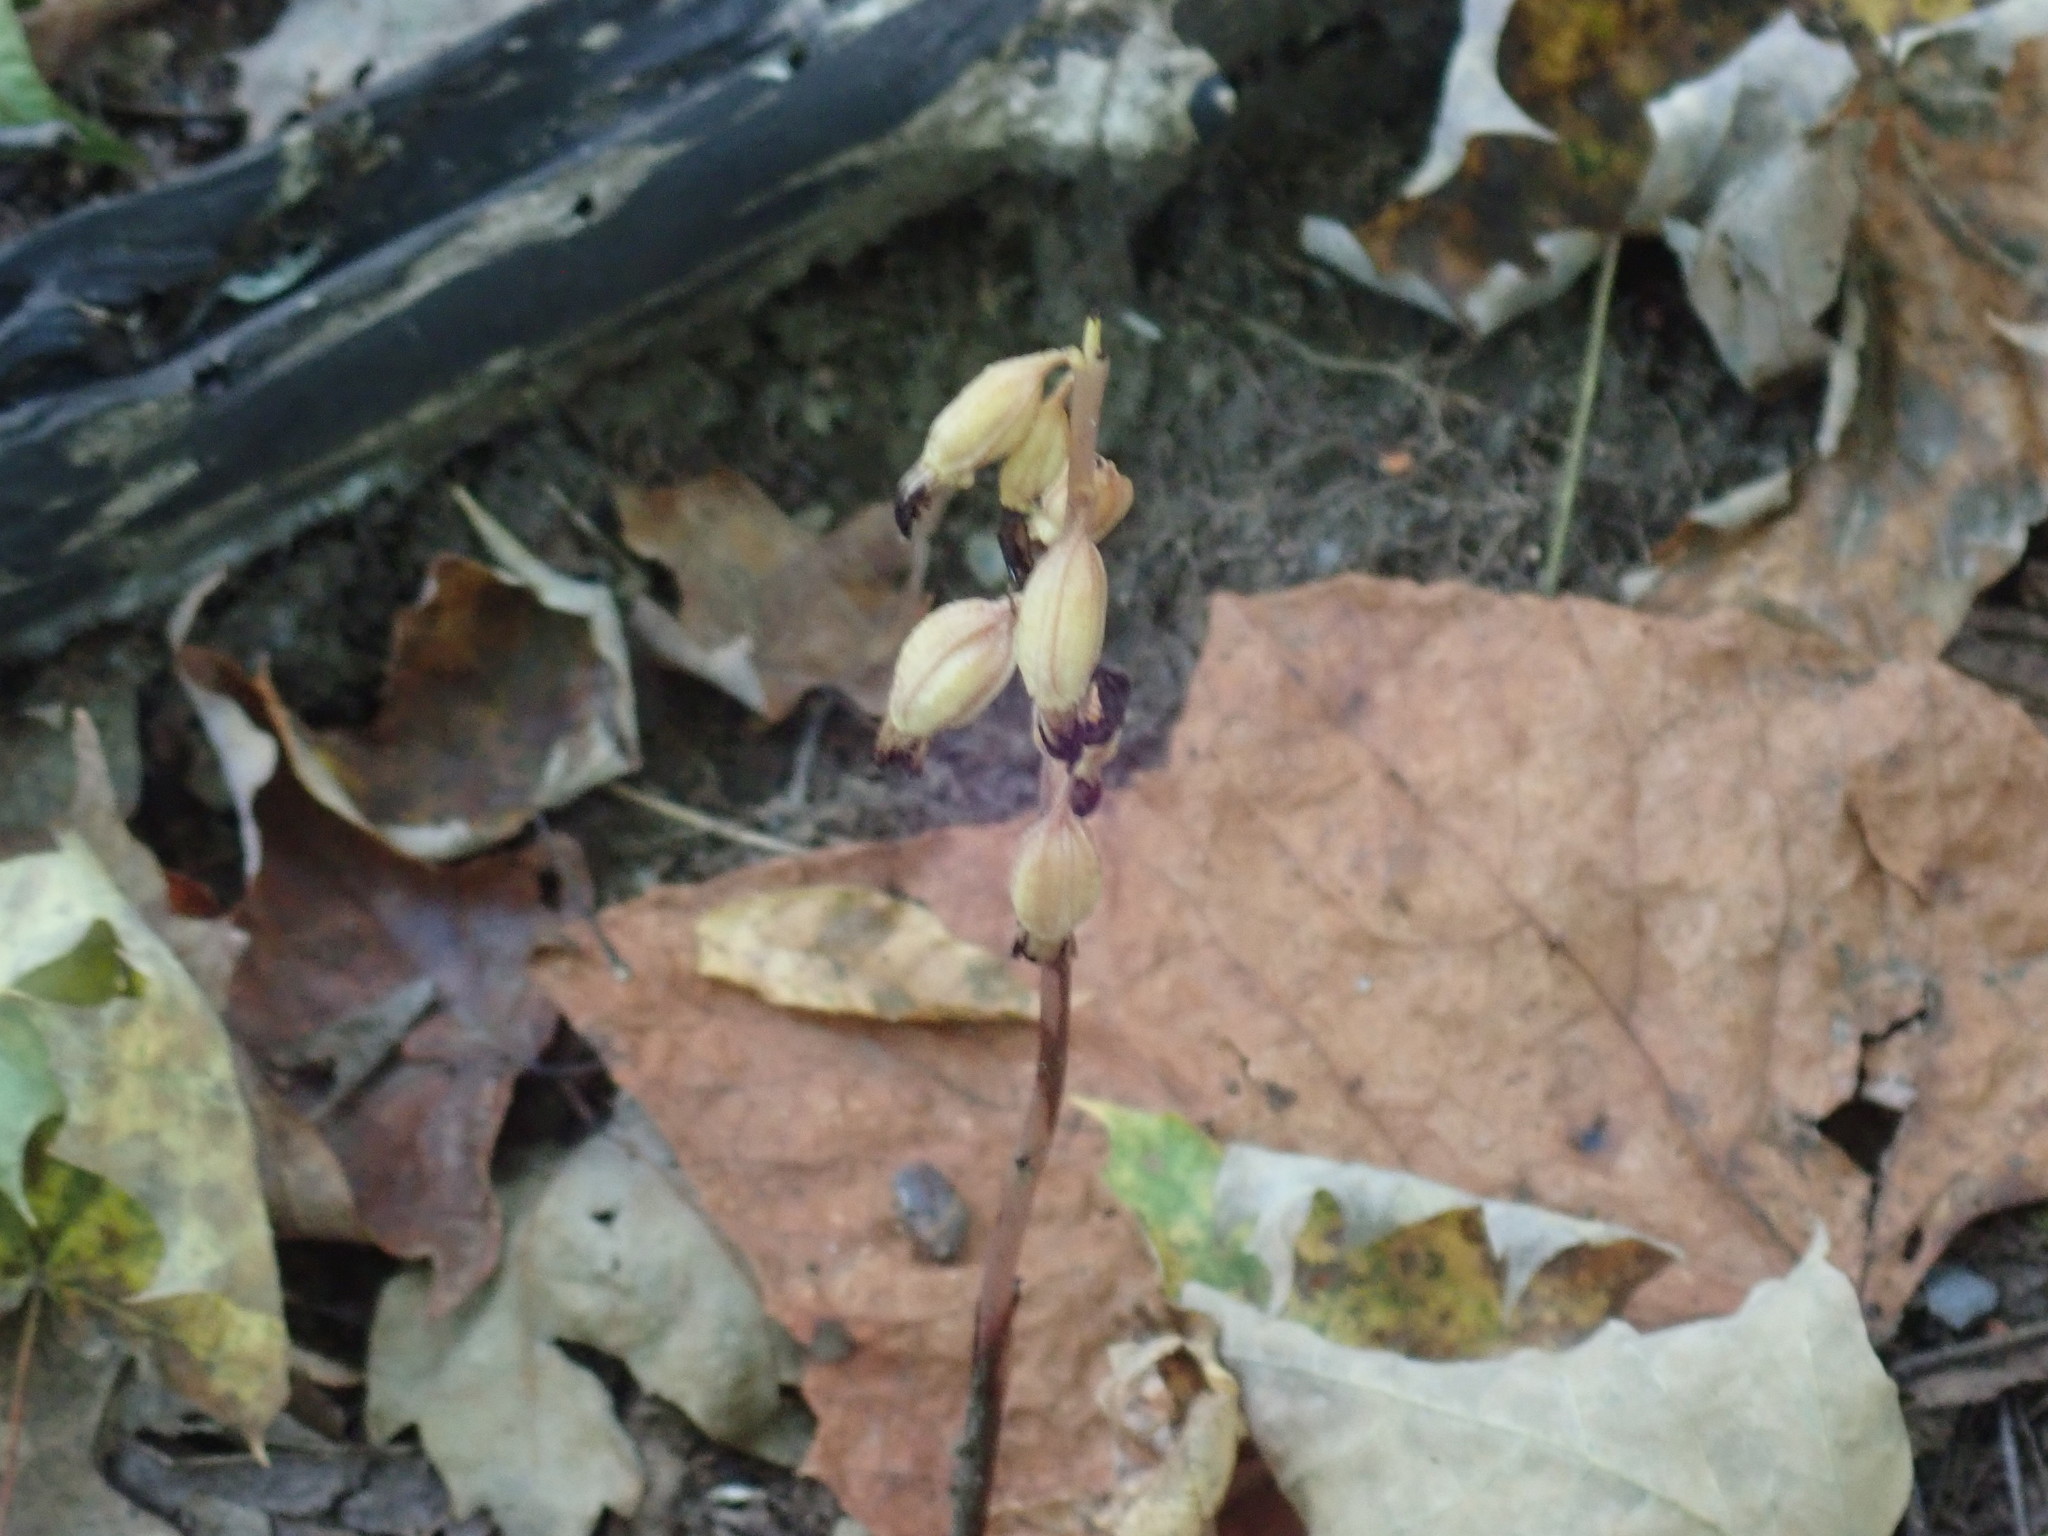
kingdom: Plantae
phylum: Tracheophyta
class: Liliopsida
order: Asparagales
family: Orchidaceae
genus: Corallorhiza
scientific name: Corallorhiza maculata
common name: Spotted coralroot
